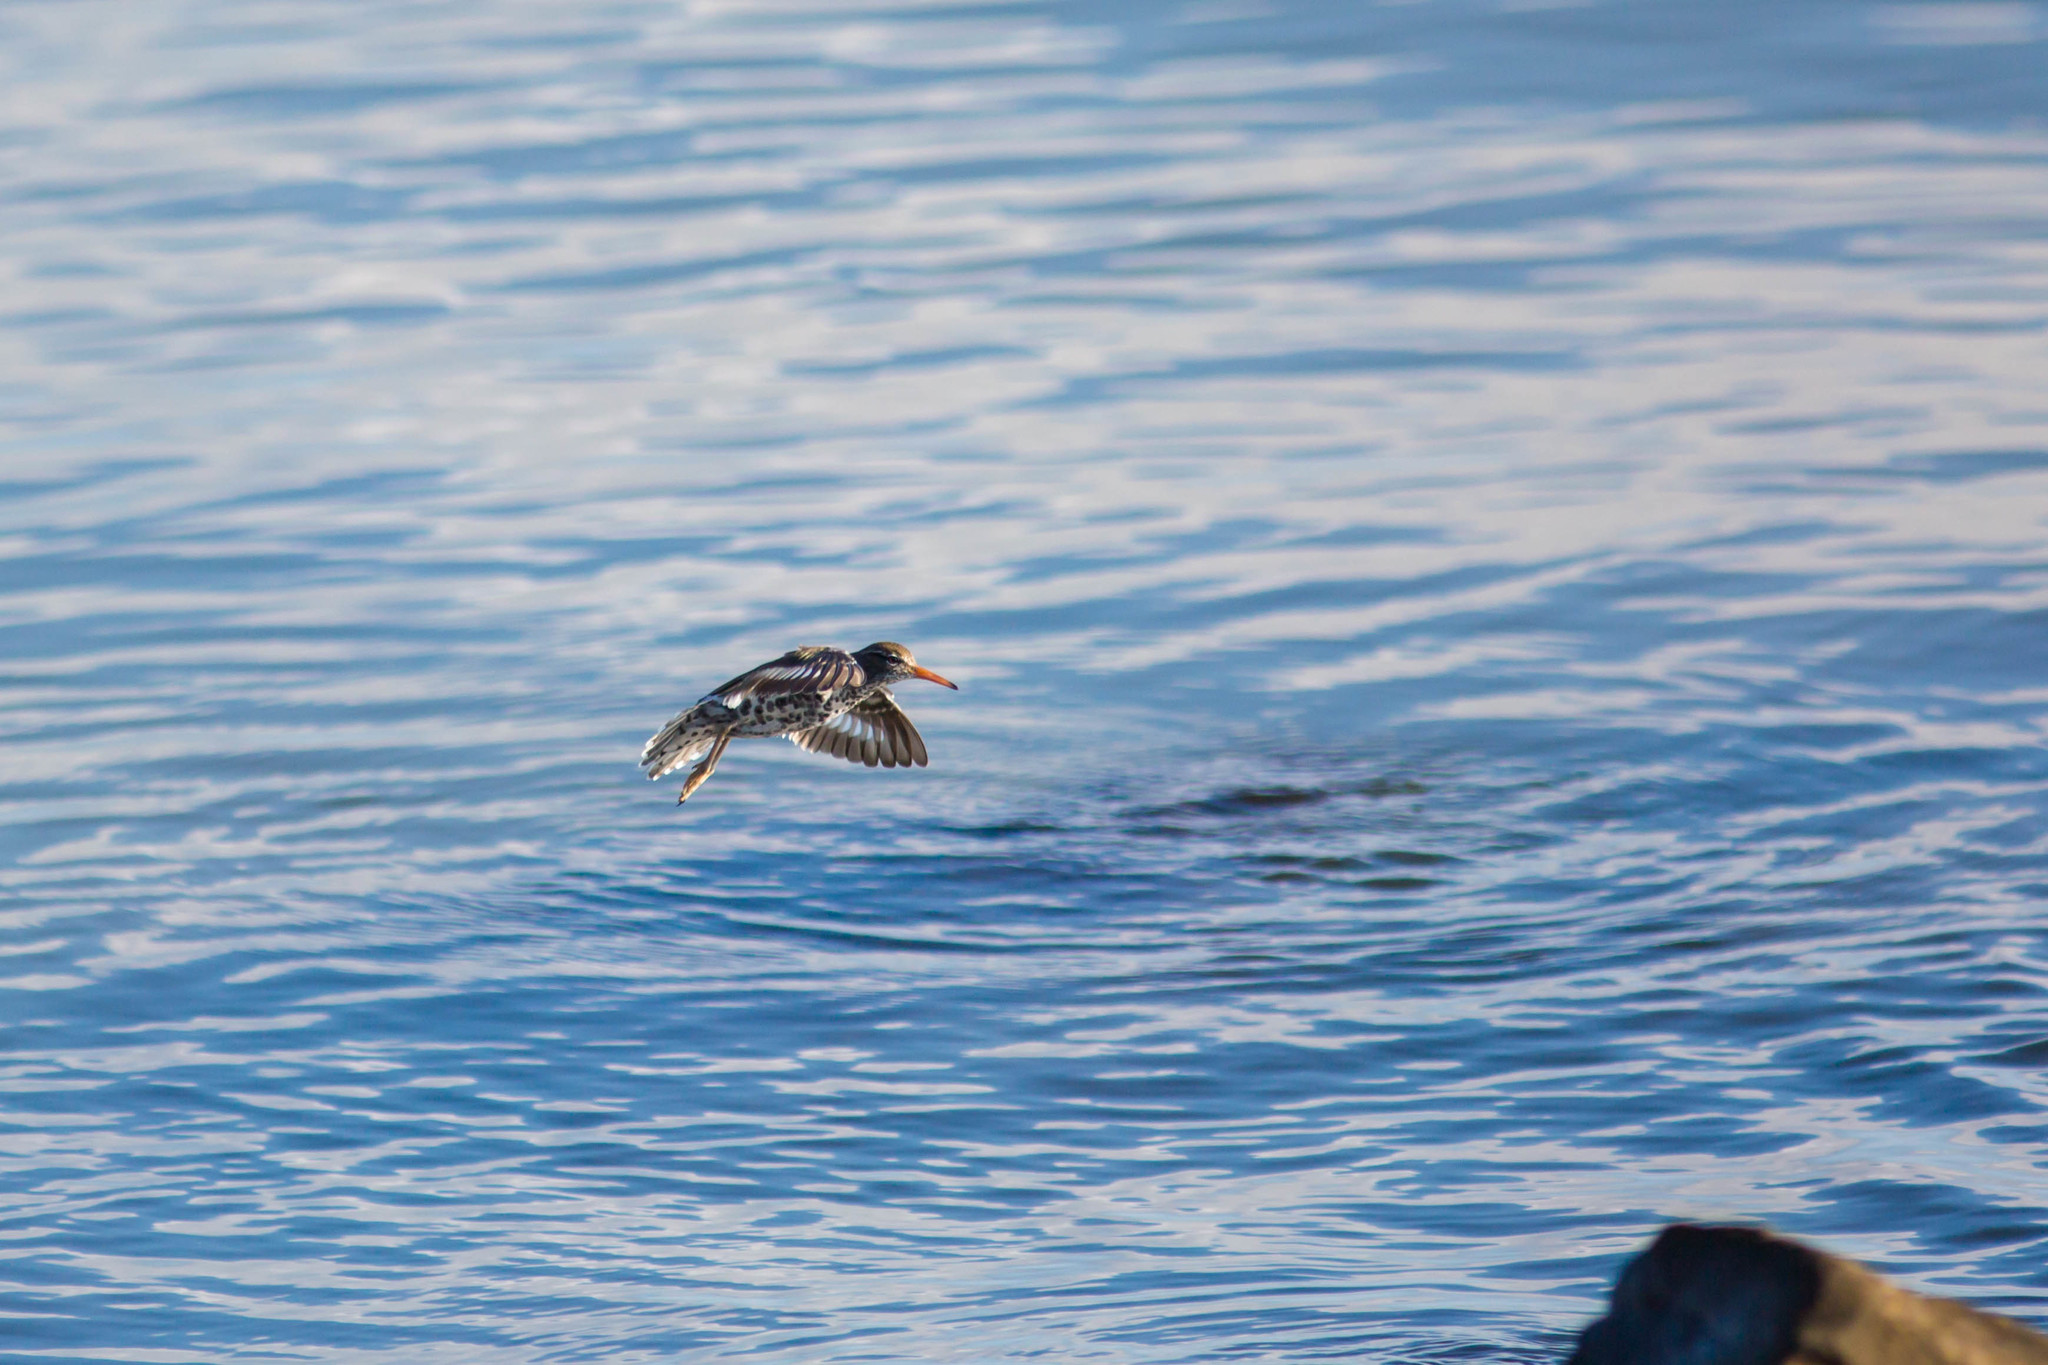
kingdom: Animalia
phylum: Chordata
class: Aves
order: Charadriiformes
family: Scolopacidae
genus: Actitis
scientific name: Actitis macularius
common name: Spotted sandpiper
